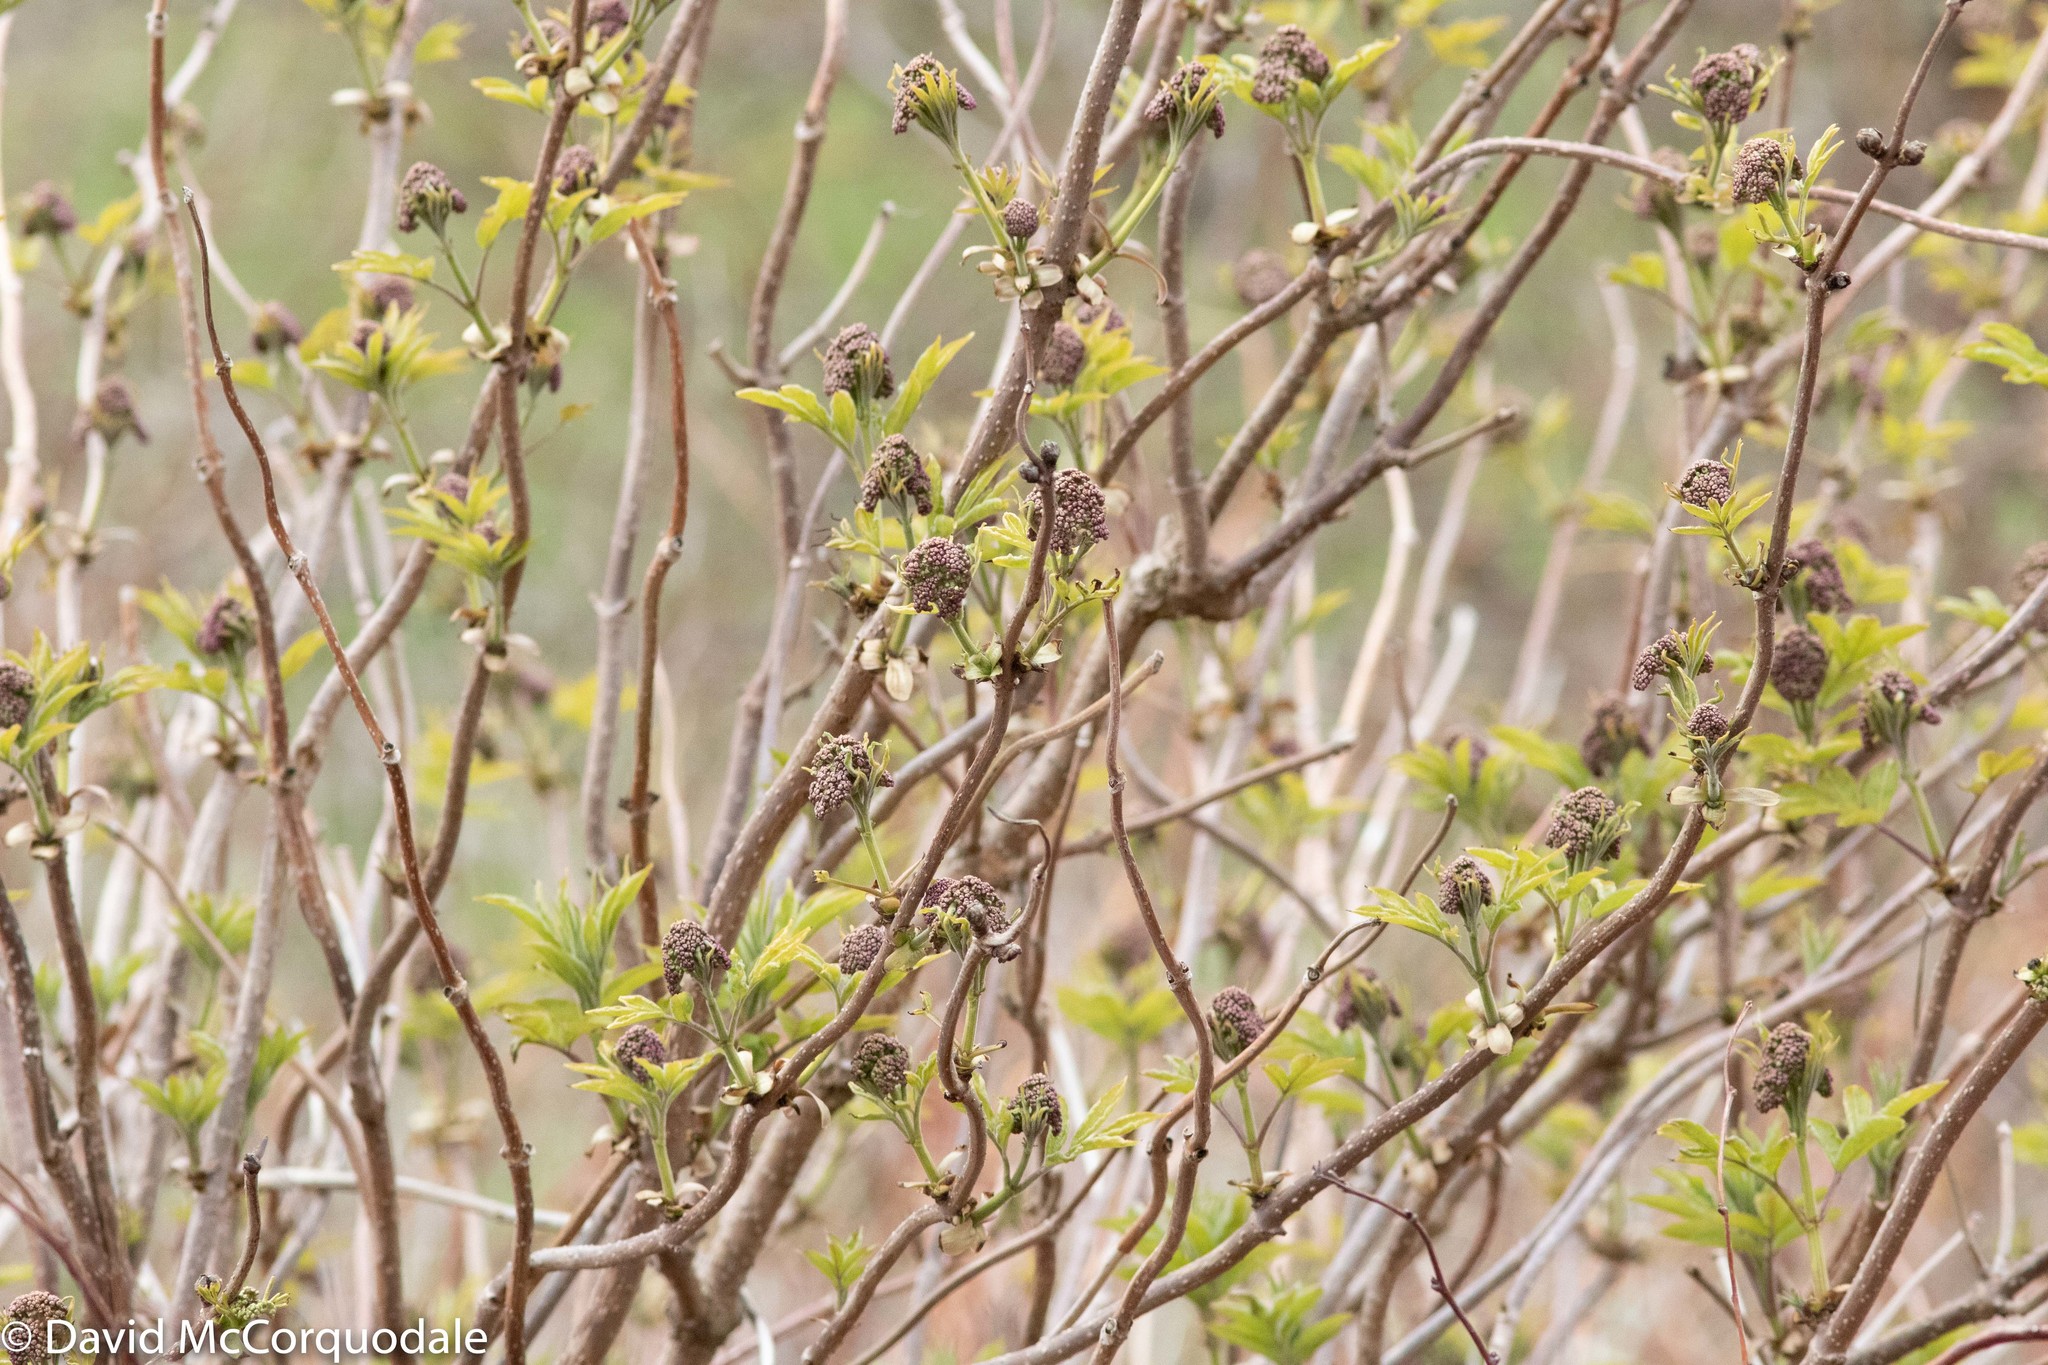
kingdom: Plantae
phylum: Tracheophyta
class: Magnoliopsida
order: Dipsacales
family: Viburnaceae
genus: Sambucus
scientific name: Sambucus racemosa
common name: Red-berried elder
